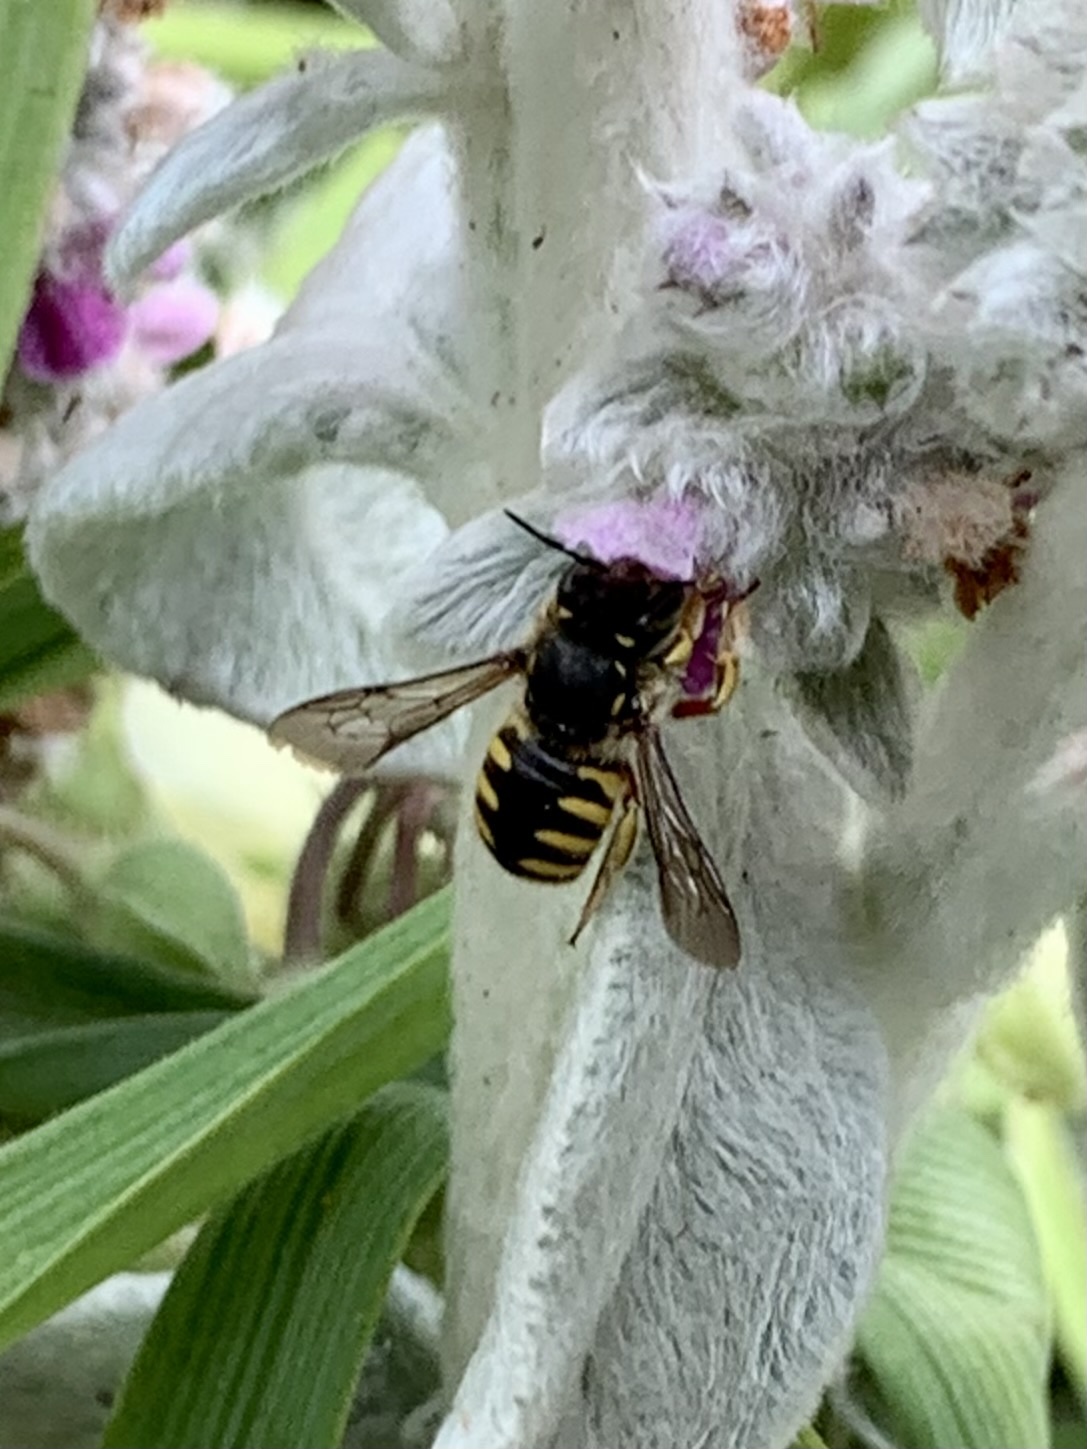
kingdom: Animalia
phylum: Arthropoda
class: Insecta
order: Hymenoptera
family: Megachilidae
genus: Anthidium
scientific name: Anthidium manicatum
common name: Wool carder bee
